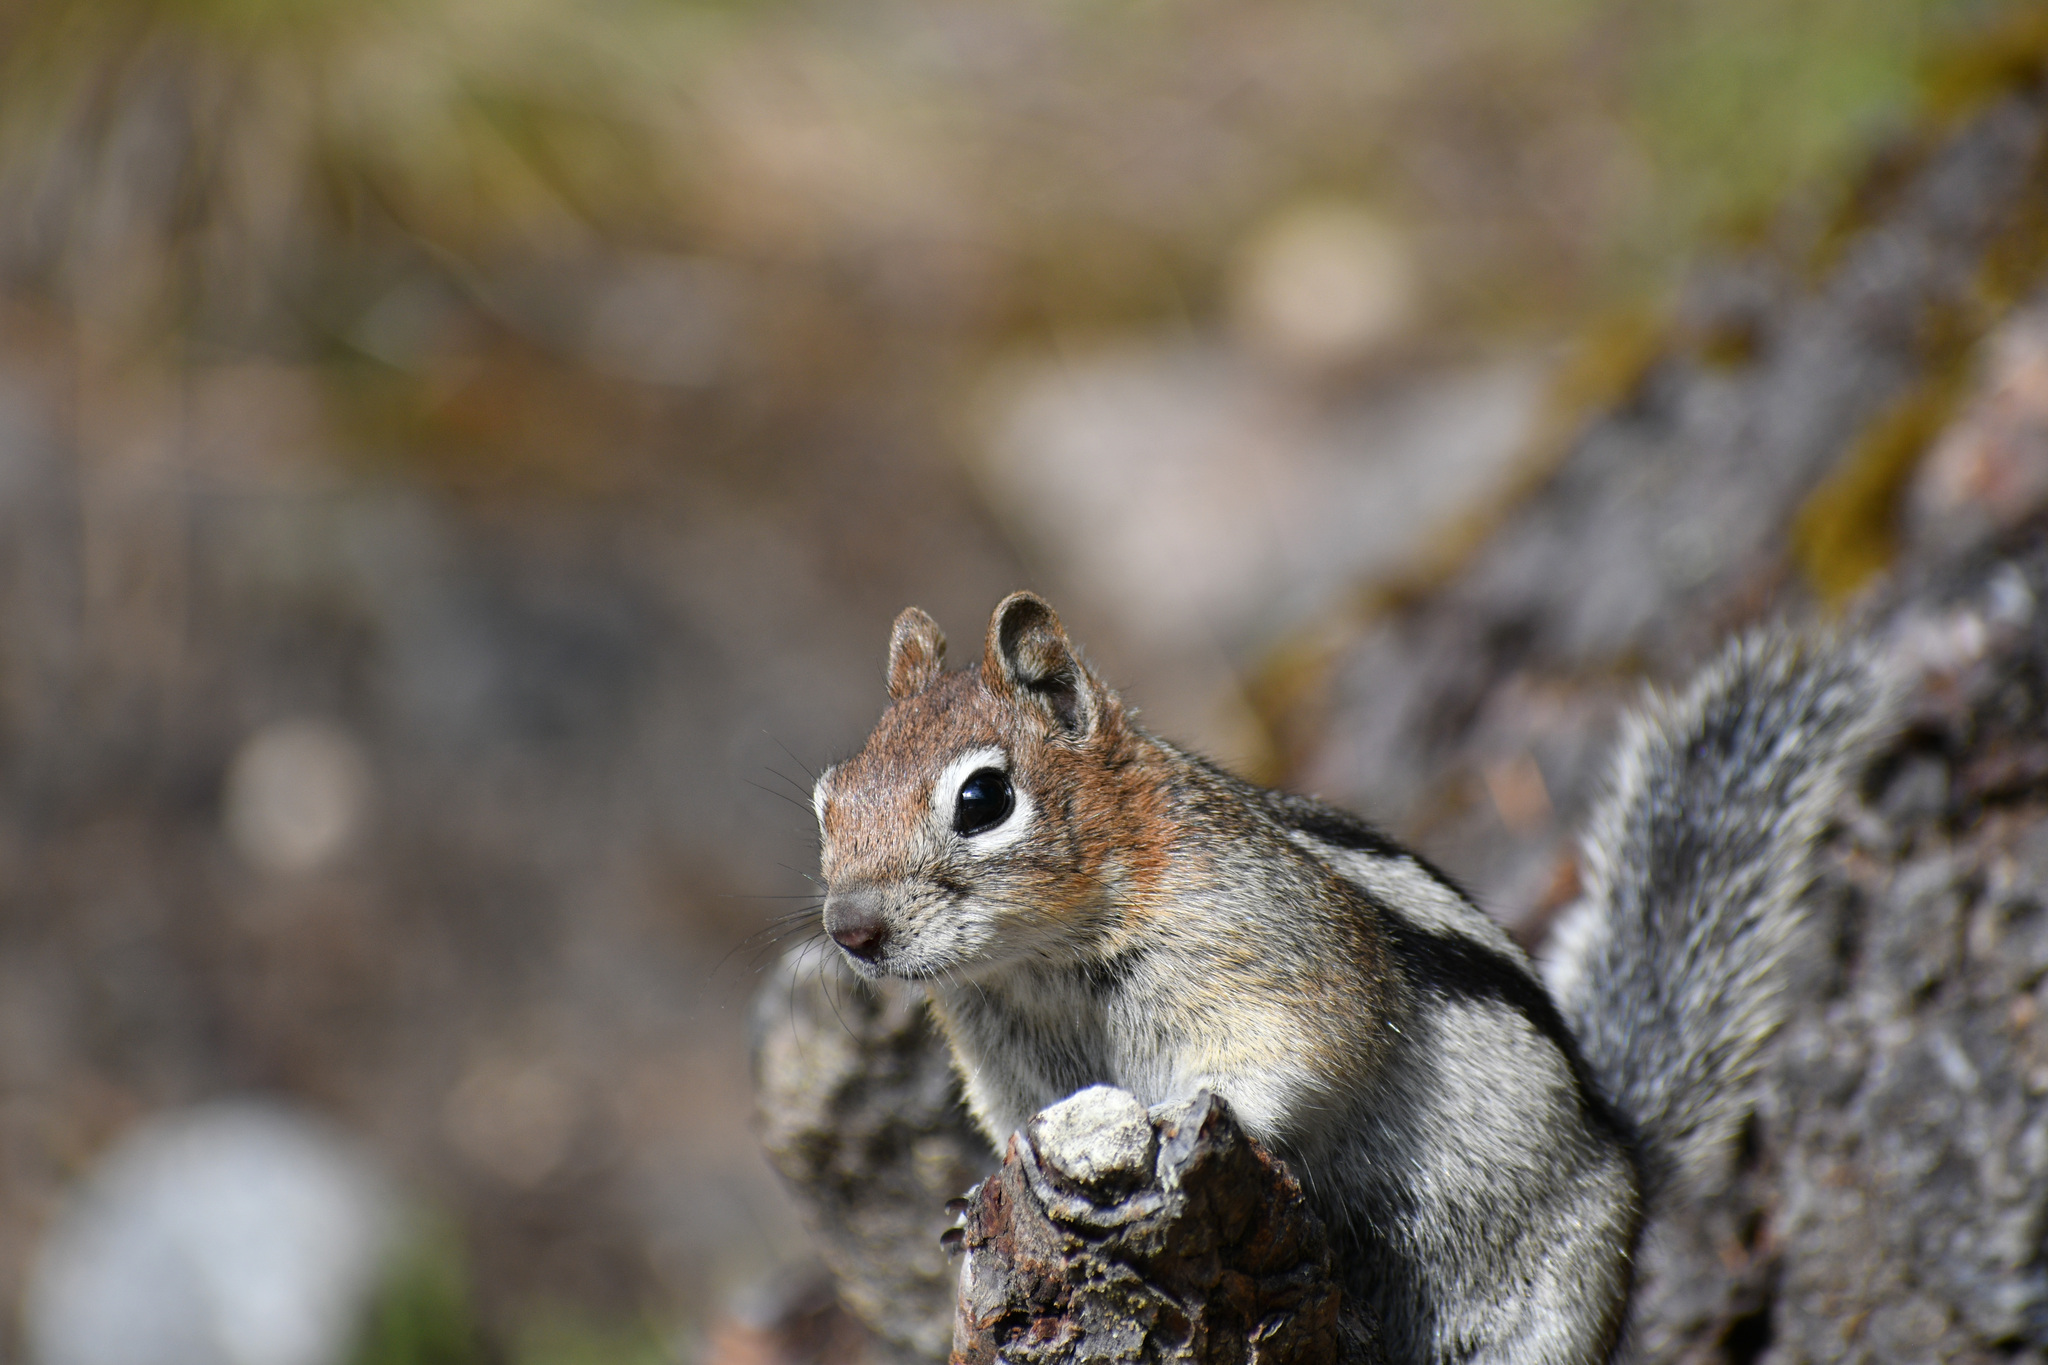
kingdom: Animalia
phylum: Chordata
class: Mammalia
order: Rodentia
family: Sciuridae
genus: Callospermophilus
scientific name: Callospermophilus lateralis
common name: Golden-mantled ground squirrel
